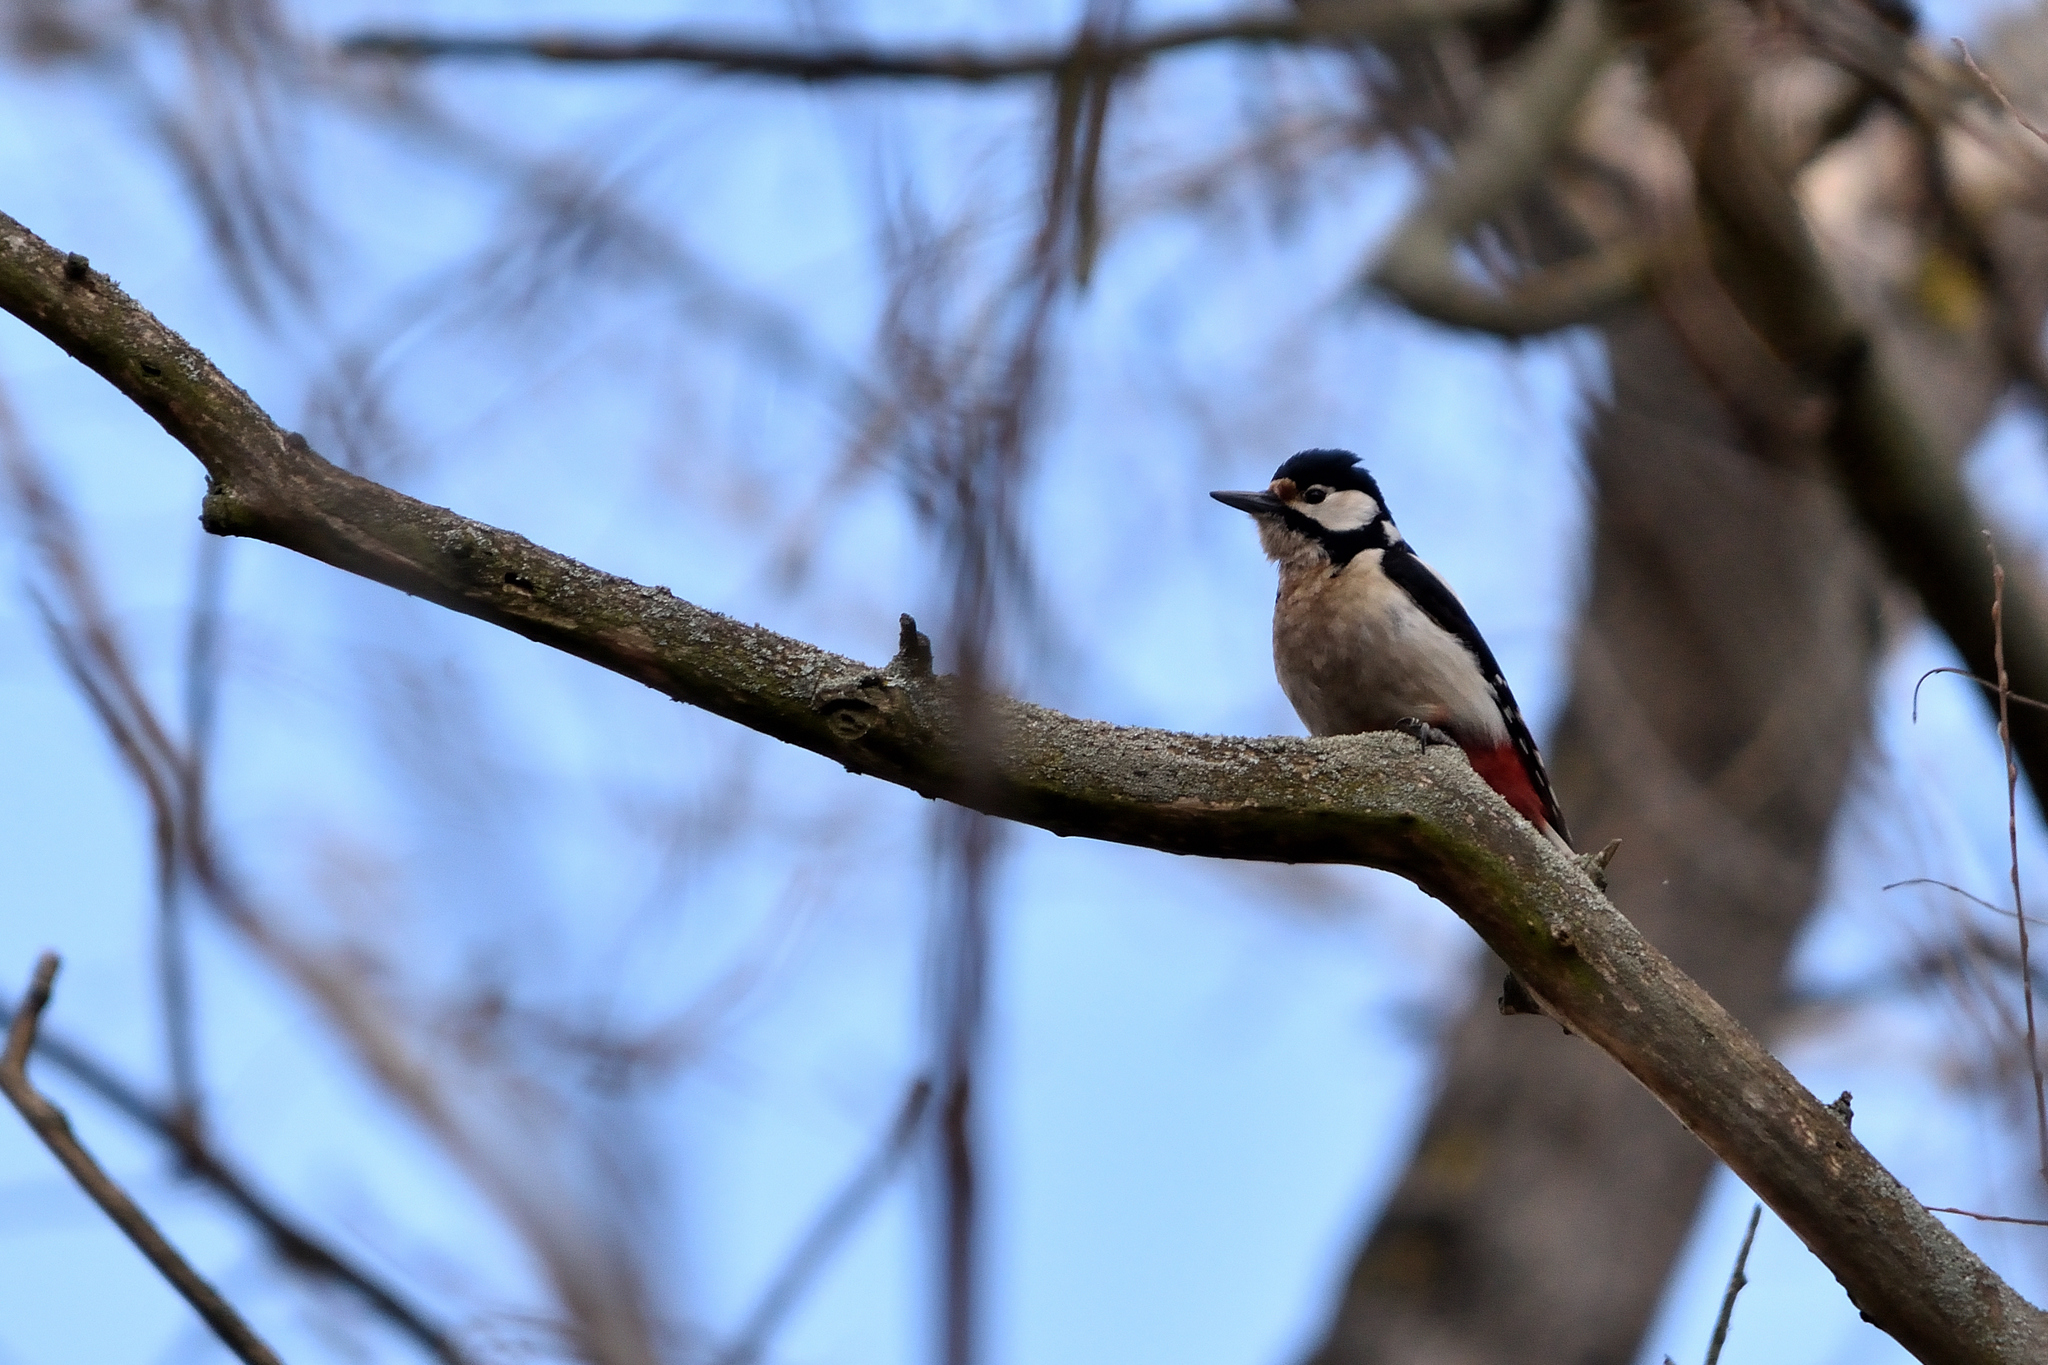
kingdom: Animalia
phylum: Chordata
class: Aves
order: Piciformes
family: Picidae
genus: Dendrocopos
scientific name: Dendrocopos major
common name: Great spotted woodpecker
